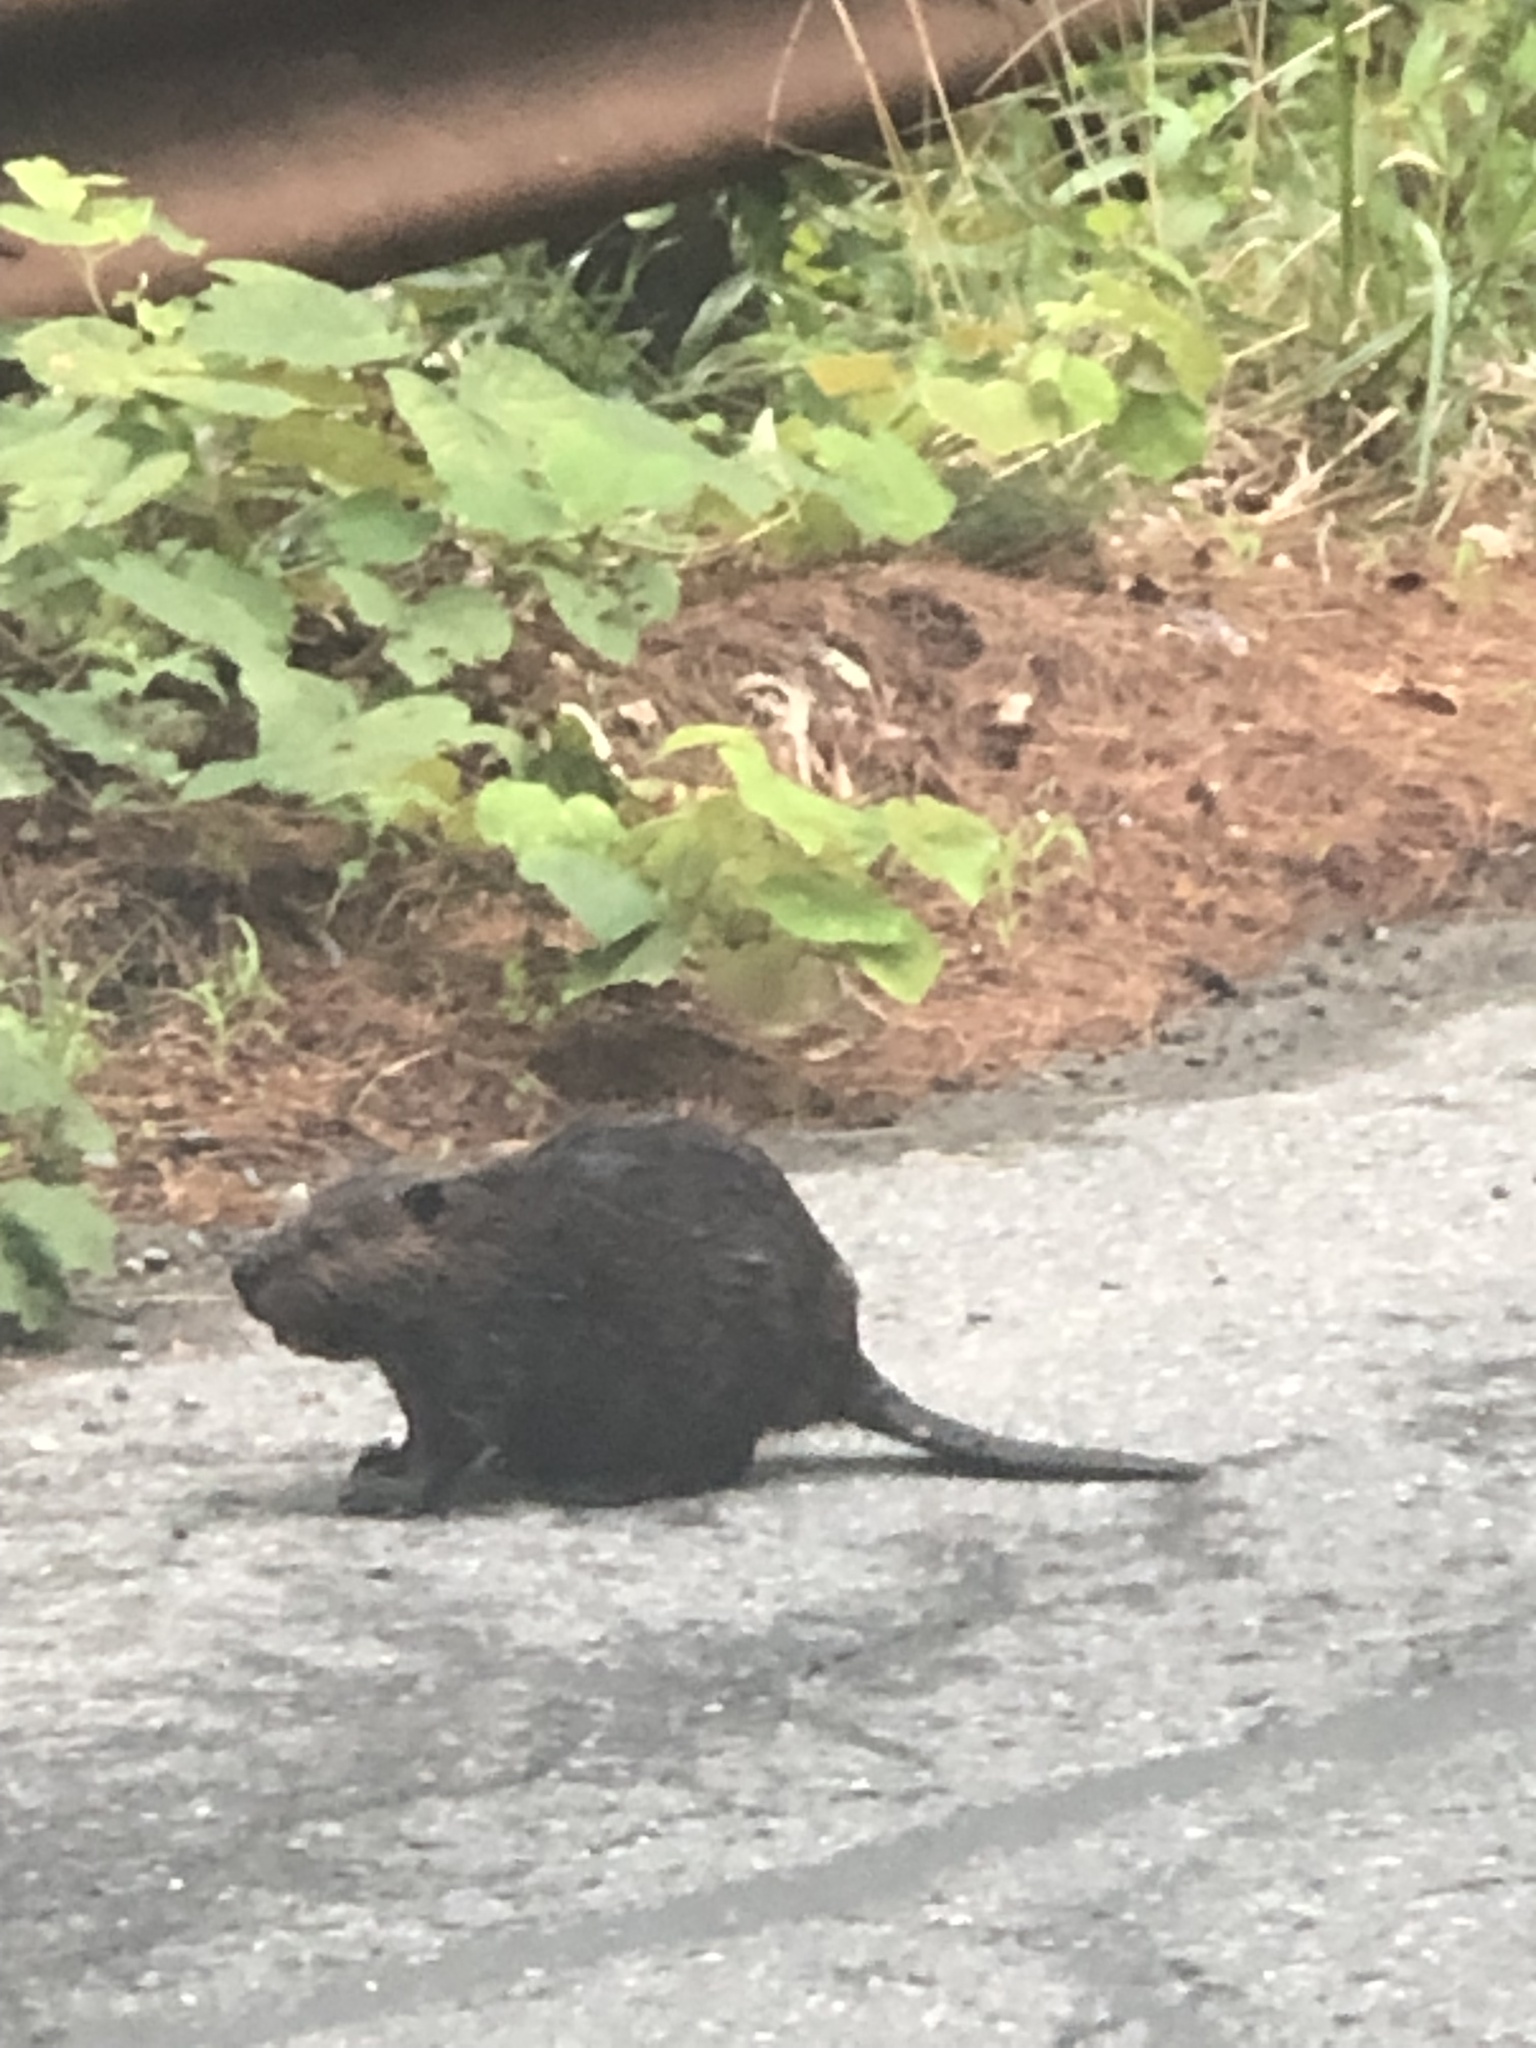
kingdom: Animalia
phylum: Chordata
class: Mammalia
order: Rodentia
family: Castoridae
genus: Castor
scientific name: Castor canadensis
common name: American beaver
